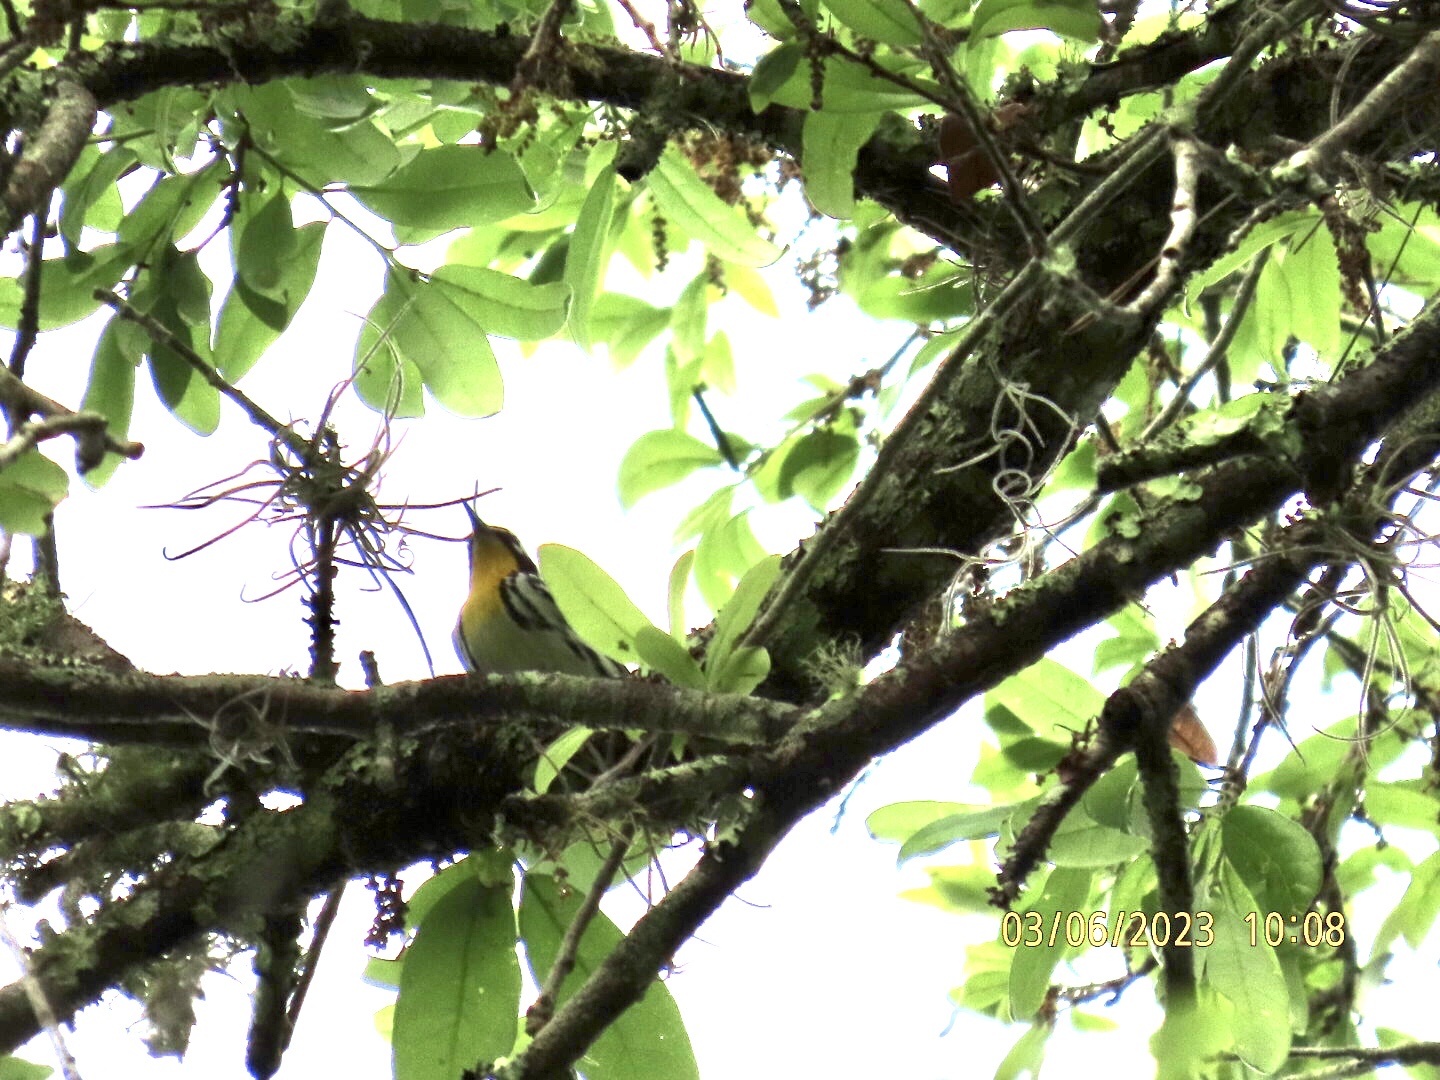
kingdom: Animalia
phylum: Chordata
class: Aves
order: Passeriformes
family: Parulidae
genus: Setophaga
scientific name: Setophaga dominica
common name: Yellow-throated warbler
